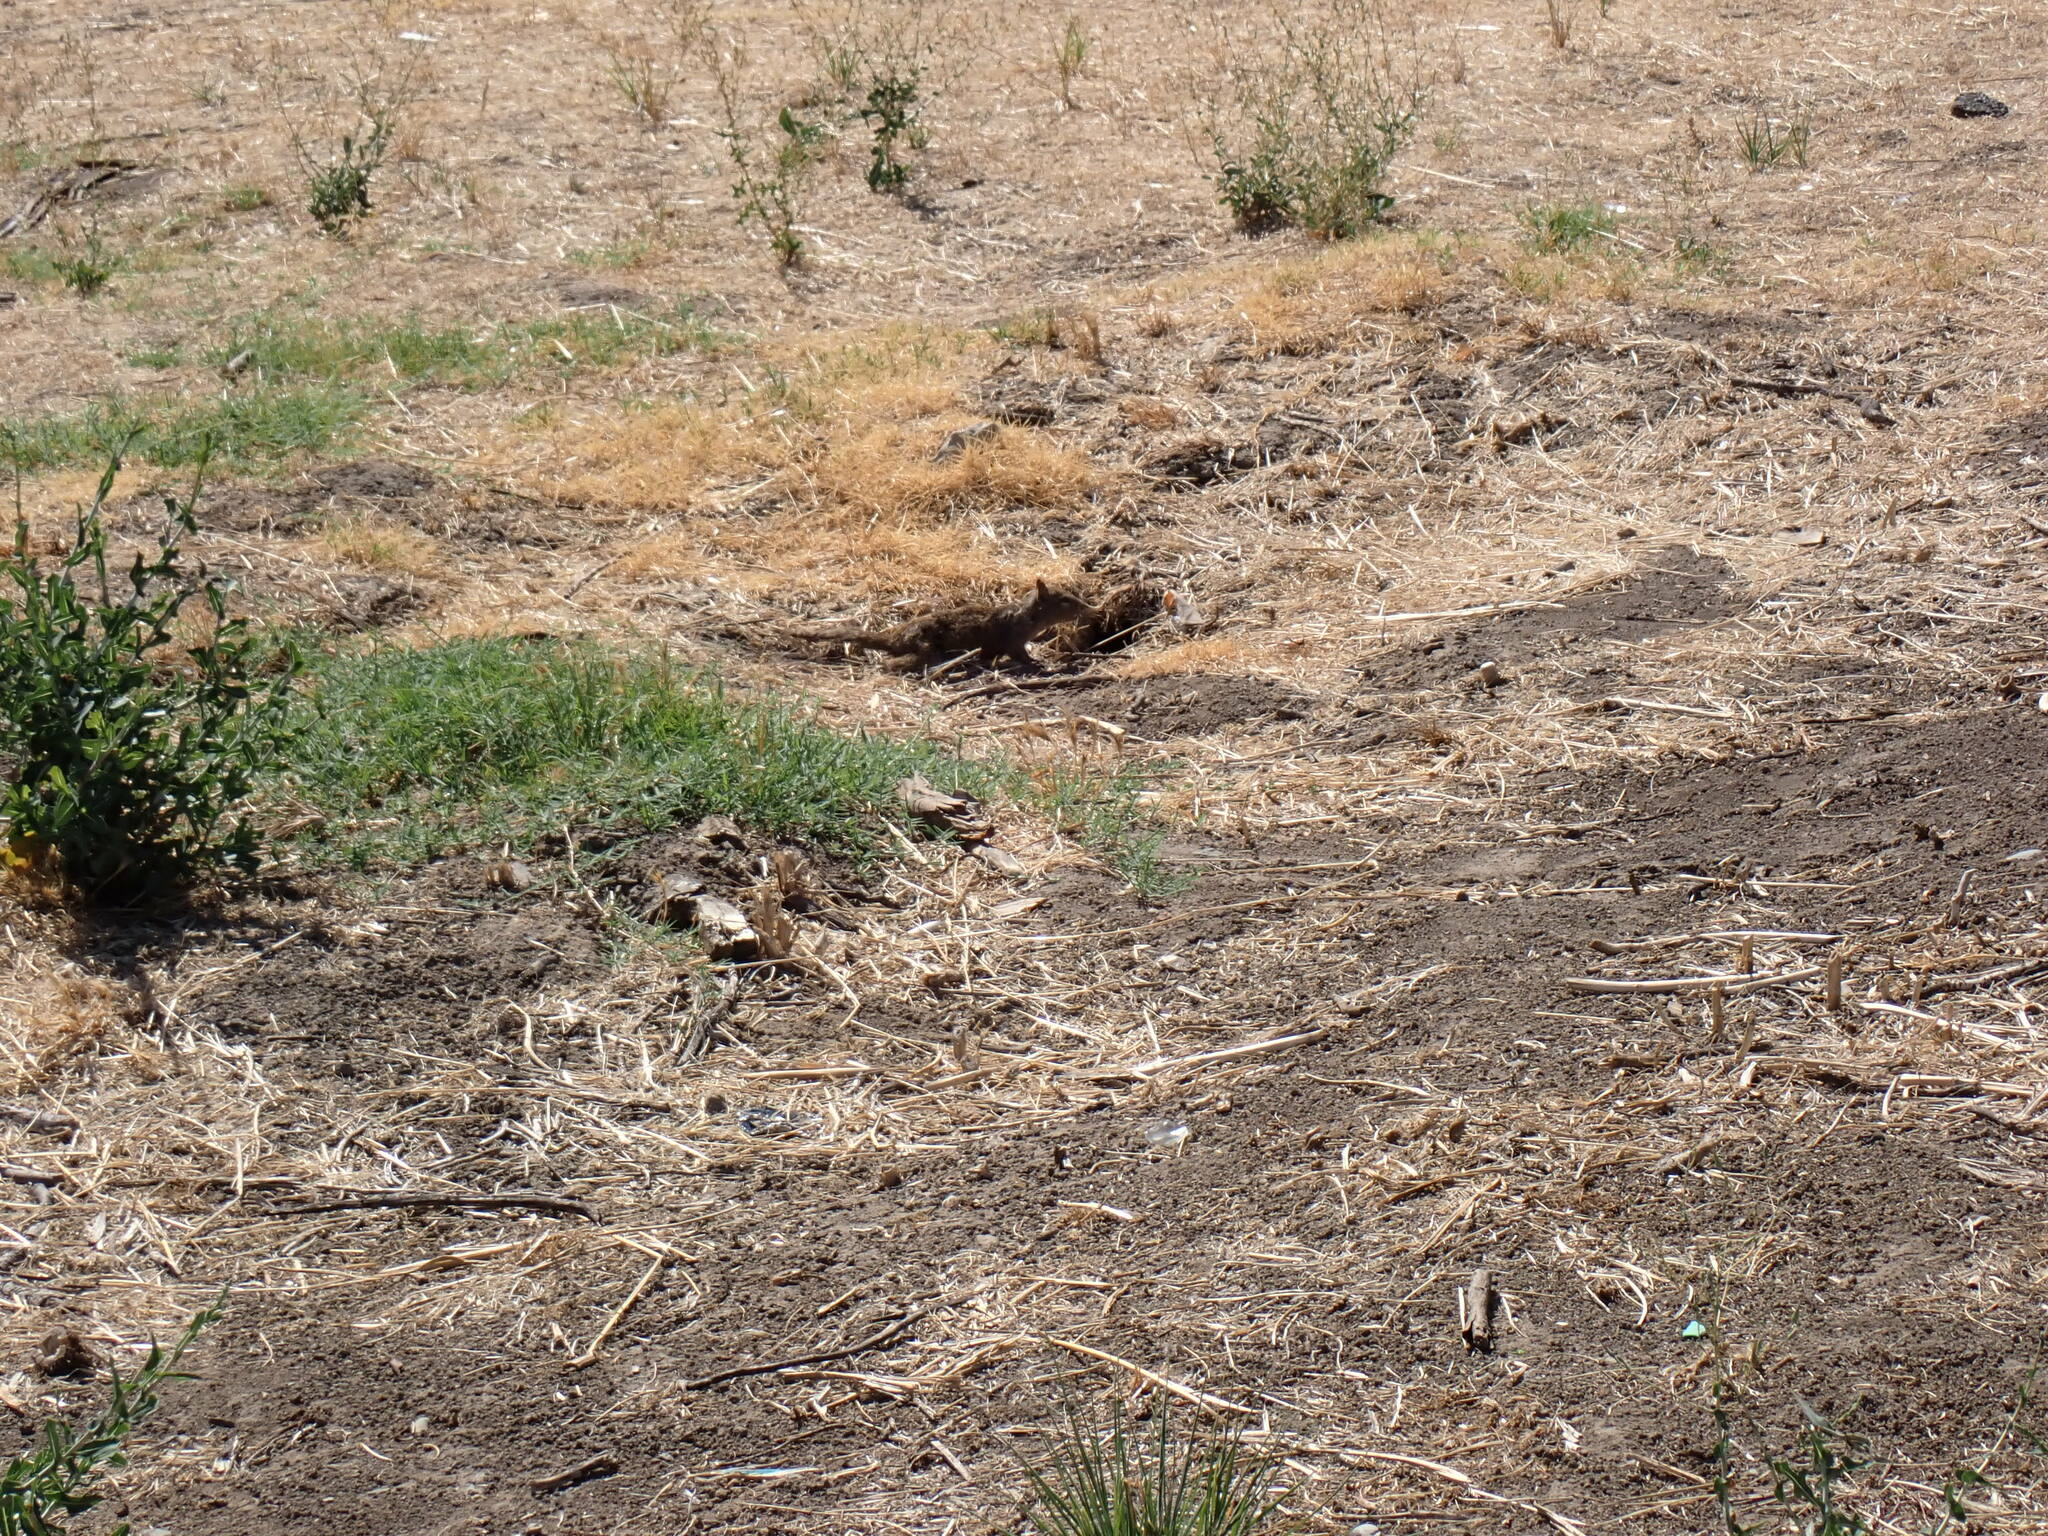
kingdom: Animalia
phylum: Chordata
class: Mammalia
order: Rodentia
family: Sciuridae
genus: Otospermophilus
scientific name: Otospermophilus beecheyi
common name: California ground squirrel
